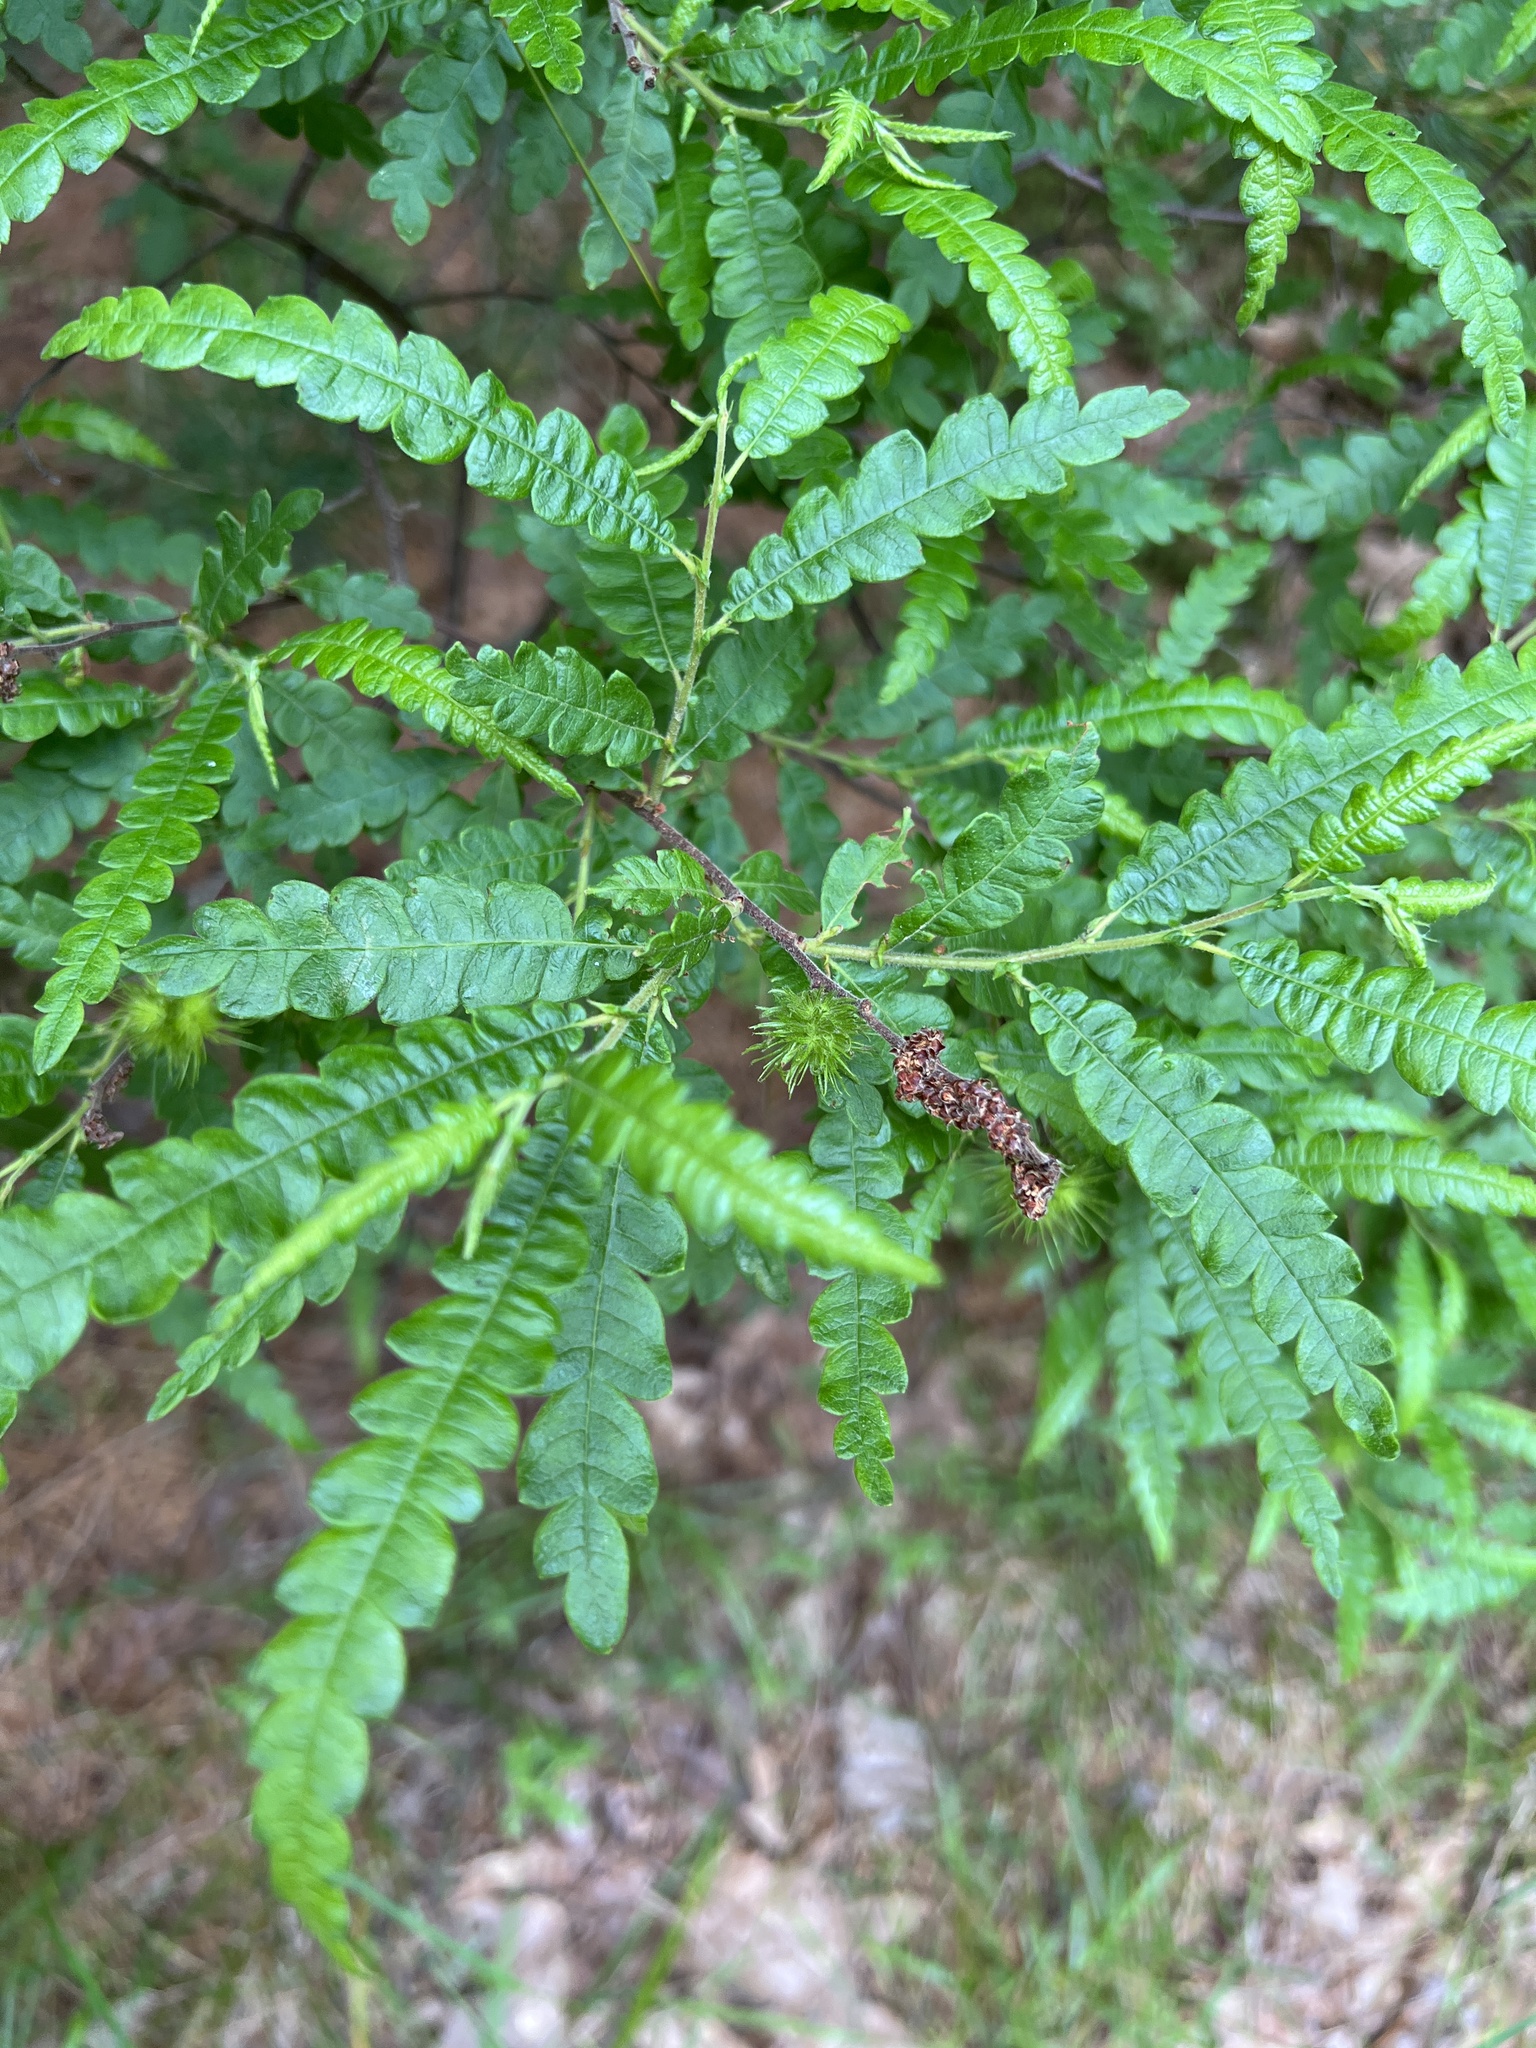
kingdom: Plantae
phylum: Tracheophyta
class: Magnoliopsida
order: Fagales
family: Myricaceae
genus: Comptonia
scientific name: Comptonia peregrina
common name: Sweet-fern
